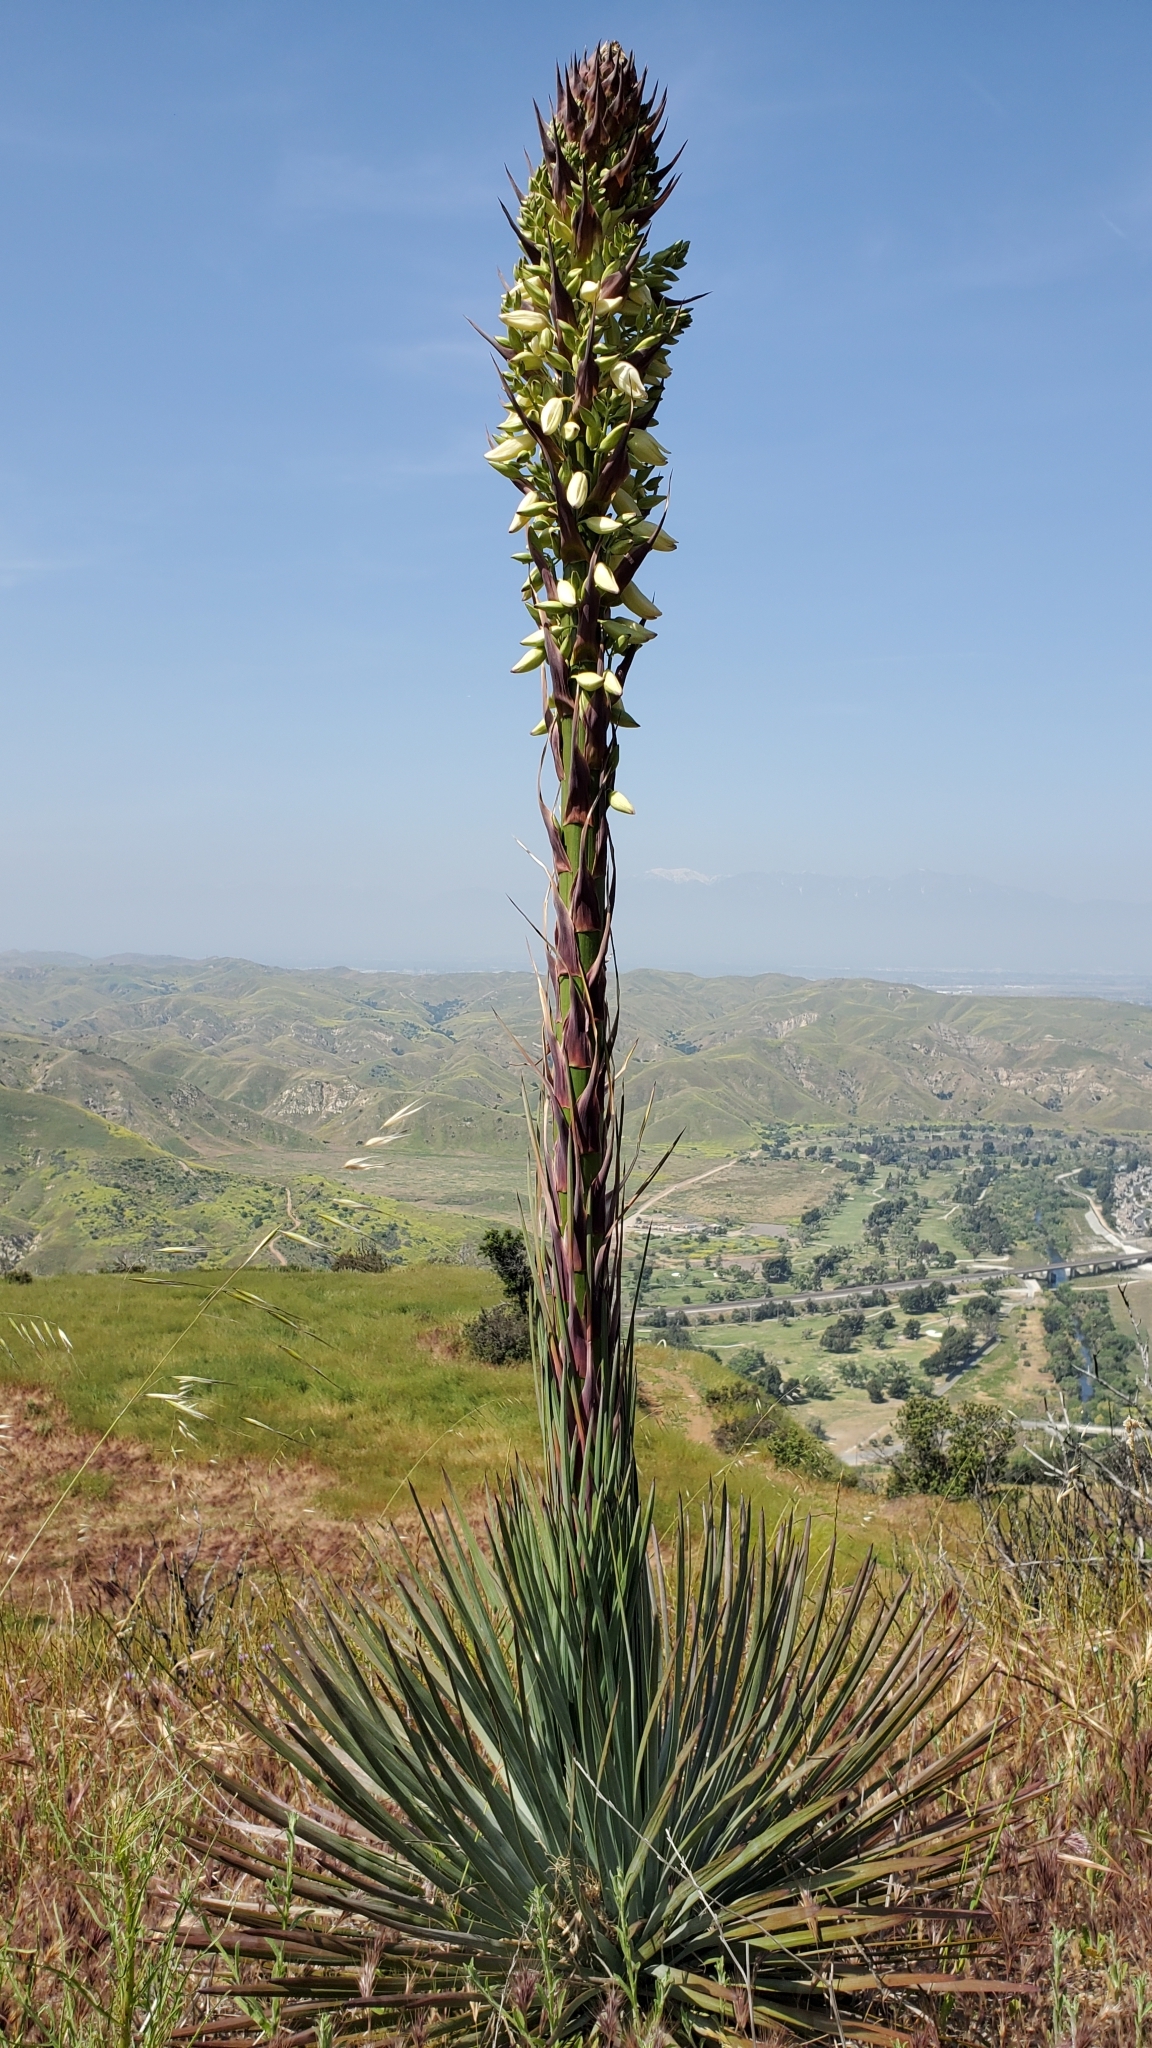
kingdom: Plantae
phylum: Tracheophyta
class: Liliopsida
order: Asparagales
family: Asparagaceae
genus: Hesperoyucca
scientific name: Hesperoyucca whipplei
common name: Our lord's-candle
